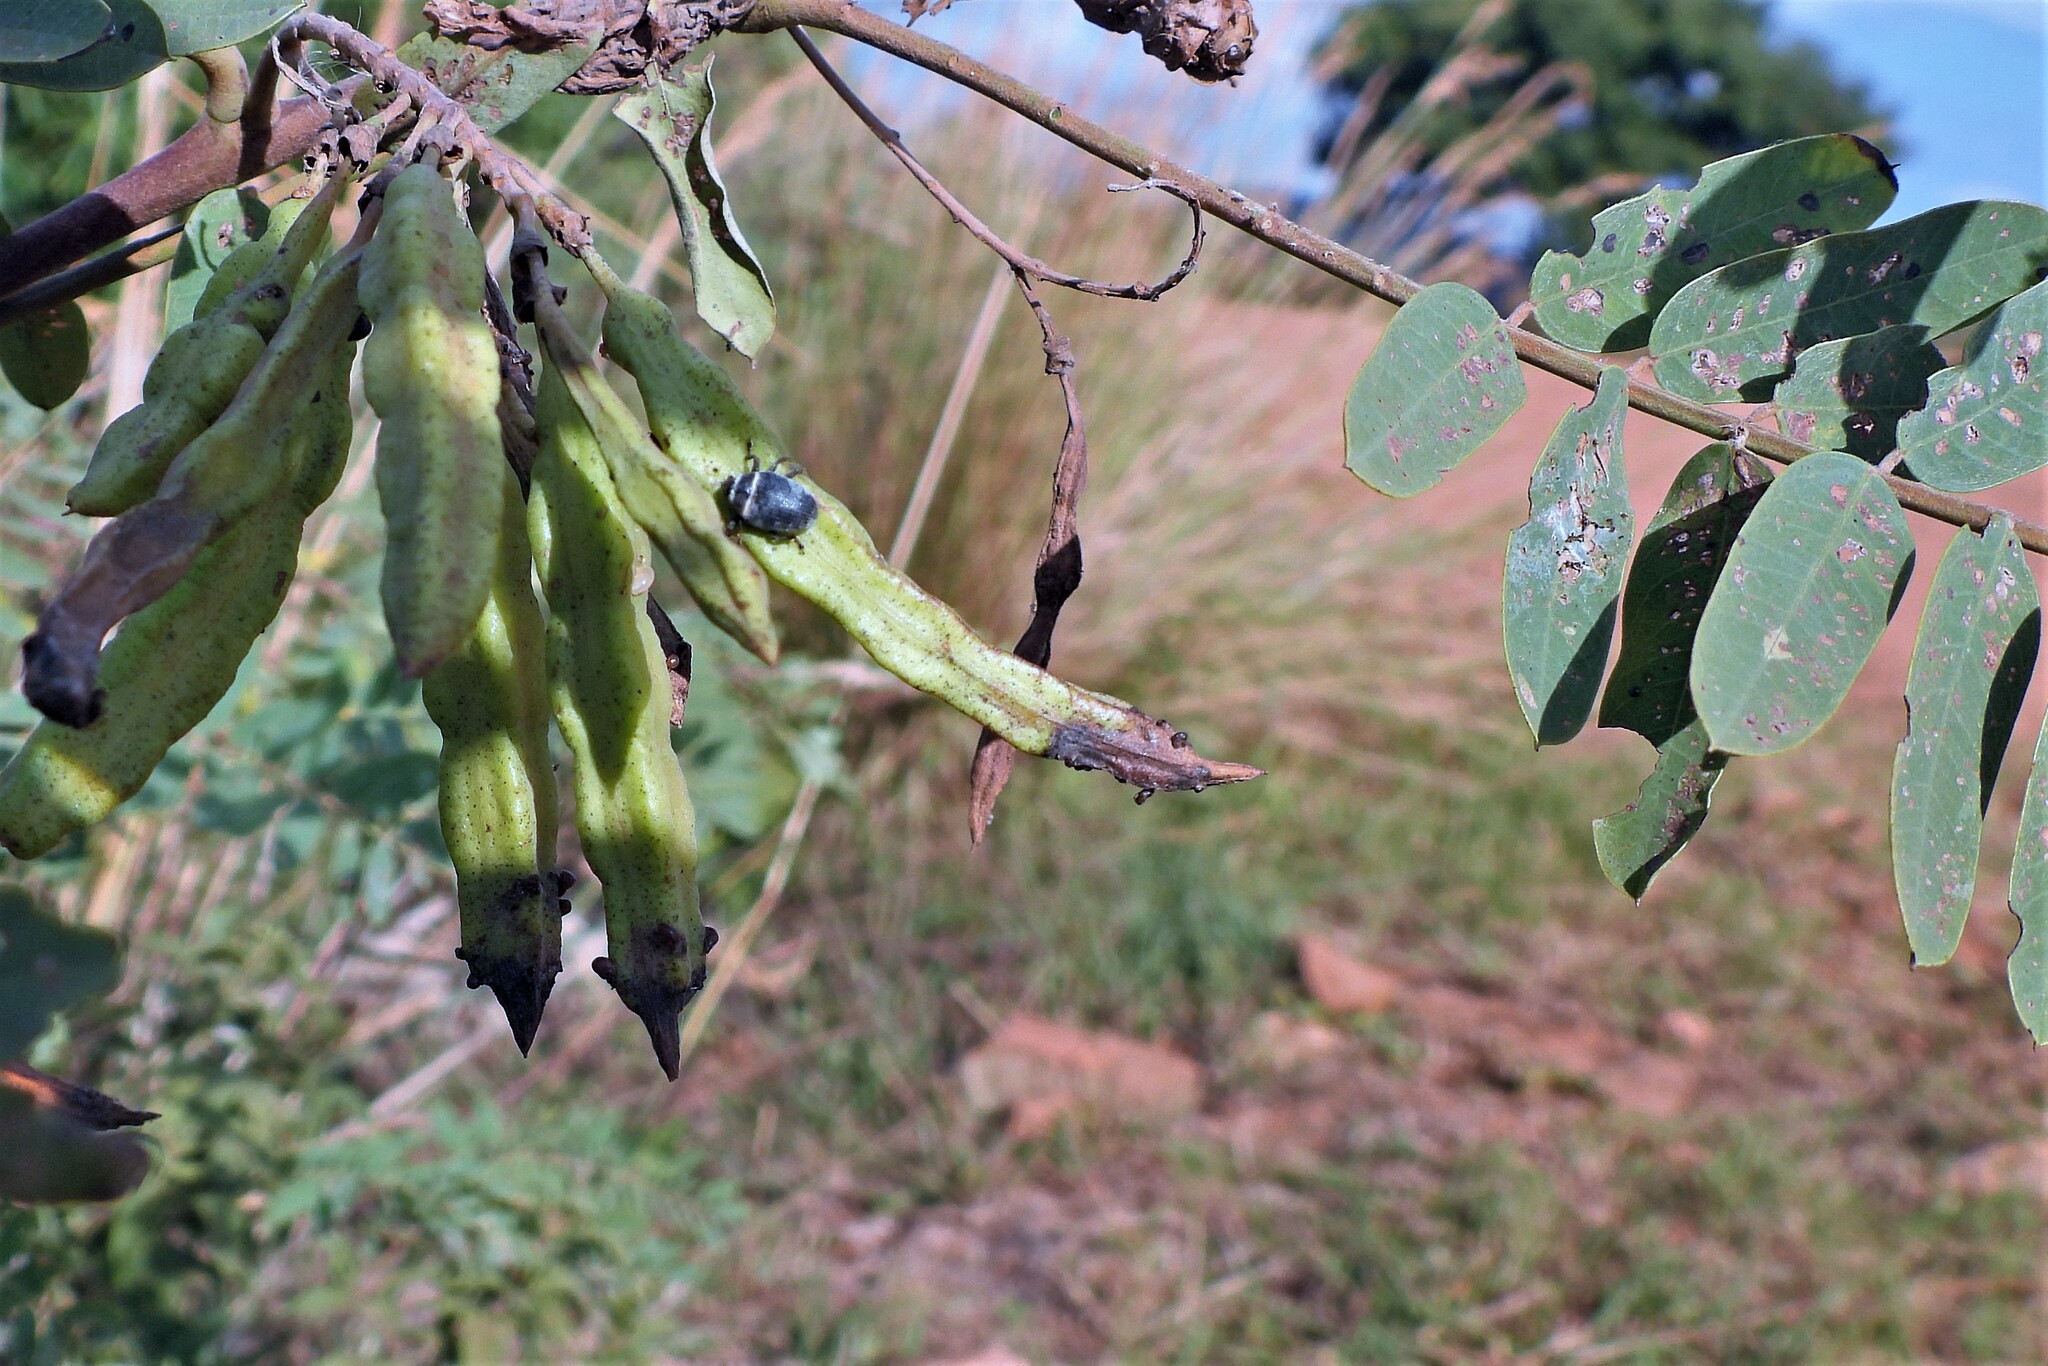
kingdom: Plantae
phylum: Tracheophyta
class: Magnoliopsida
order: Fabales
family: Fabaceae
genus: Sesbania
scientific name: Sesbania virgata
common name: Wand riverhemp
